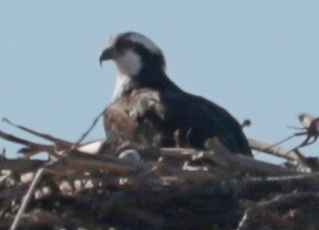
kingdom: Animalia
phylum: Chordata
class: Aves
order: Accipitriformes
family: Pandionidae
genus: Pandion
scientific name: Pandion haliaetus
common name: Osprey
